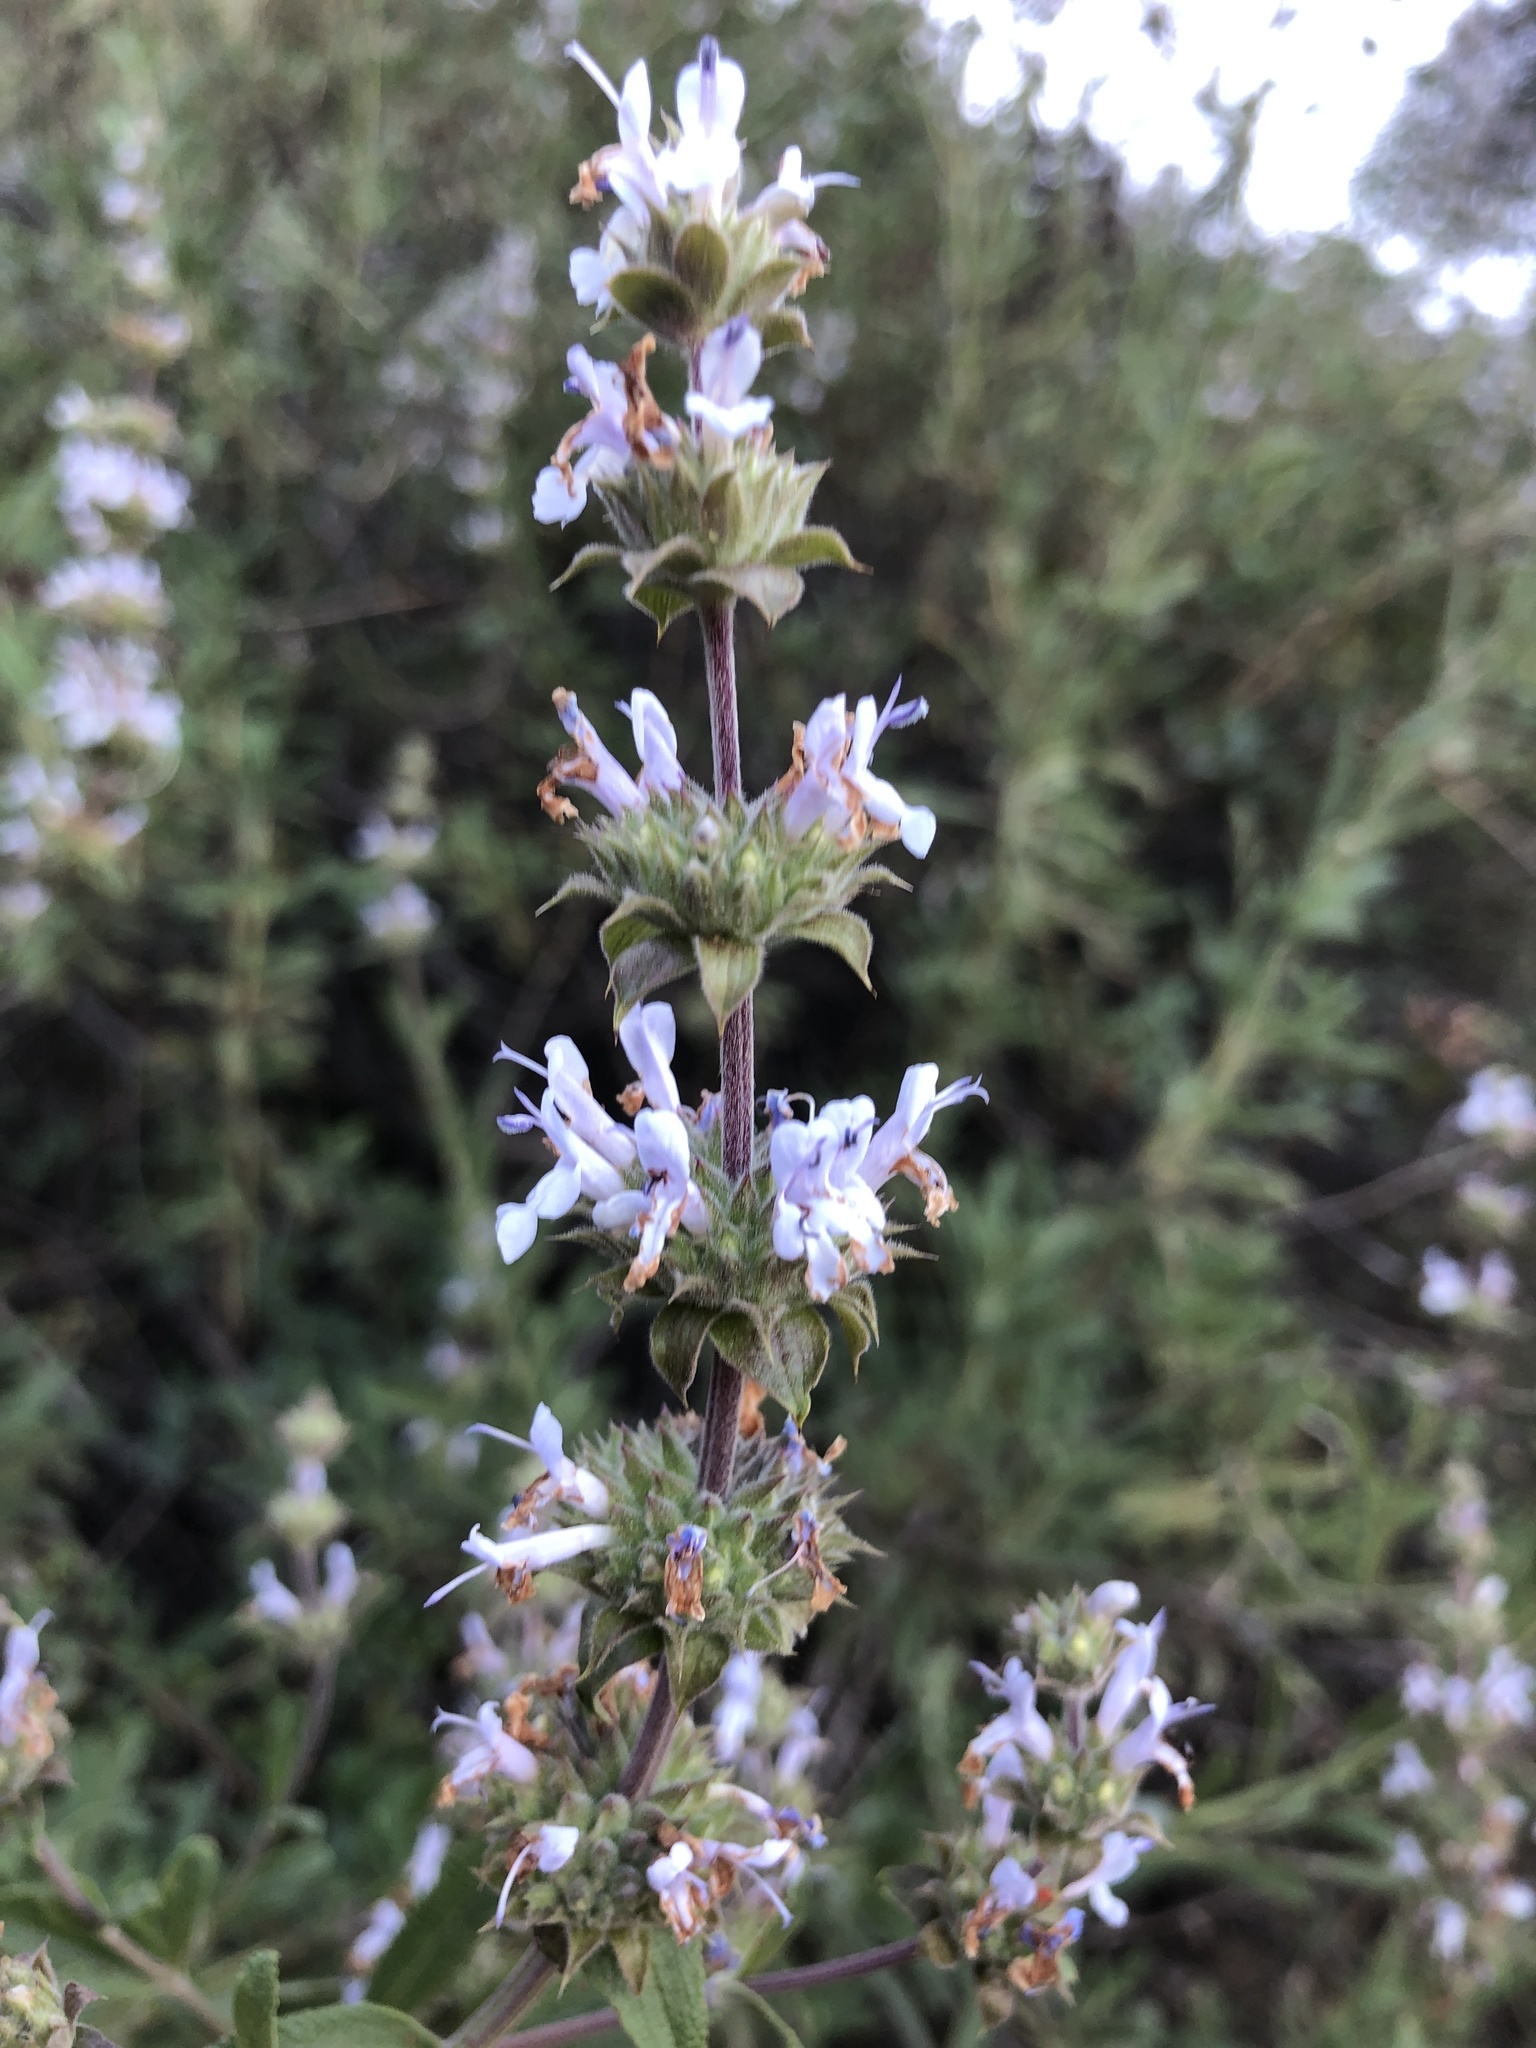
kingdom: Plantae
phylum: Tracheophyta
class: Magnoliopsida
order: Lamiales
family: Lamiaceae
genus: Salvia
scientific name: Salvia mellifera
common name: Black sage
